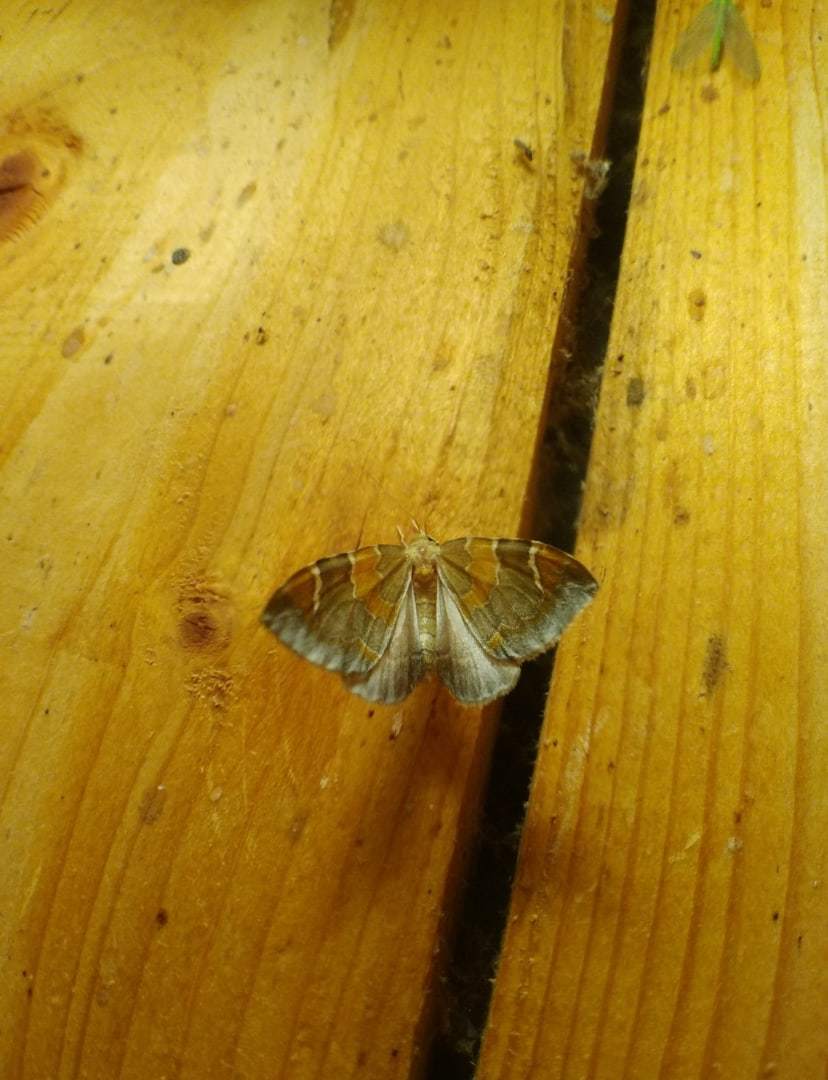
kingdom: Animalia
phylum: Arthropoda
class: Insecta
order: Lepidoptera
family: Geometridae
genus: Eulithis
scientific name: Eulithis pyropata
